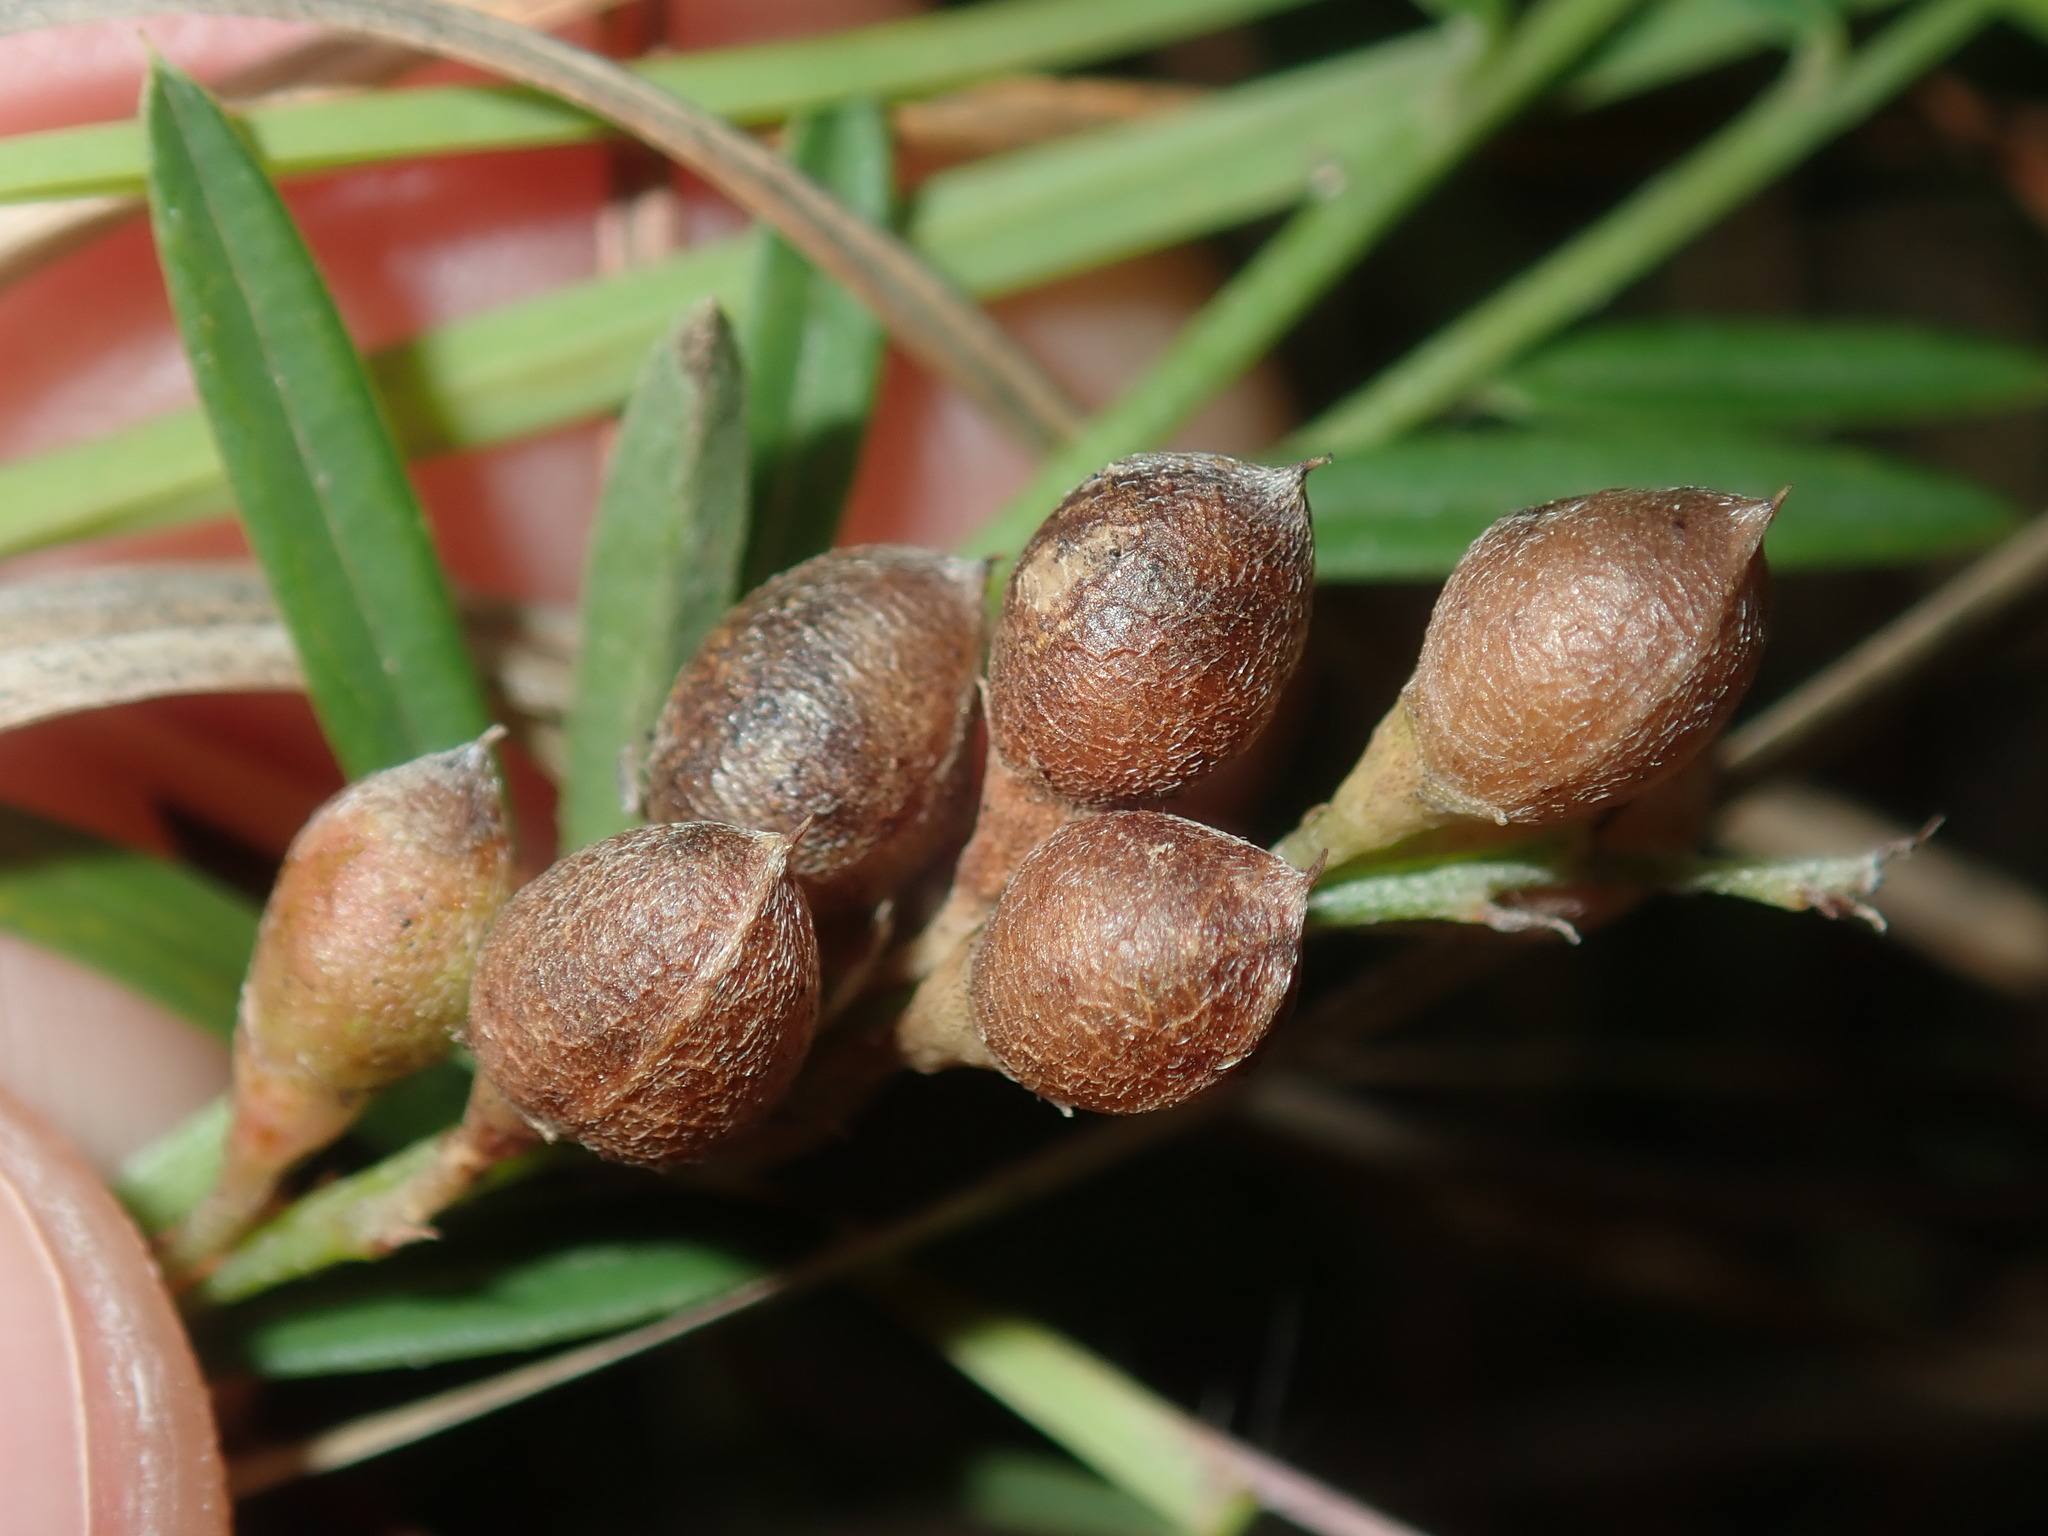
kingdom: Plantae
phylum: Tracheophyta
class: Magnoliopsida
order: Fabales
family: Fabaceae
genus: Chorizema
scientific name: Chorizema parviflorum
